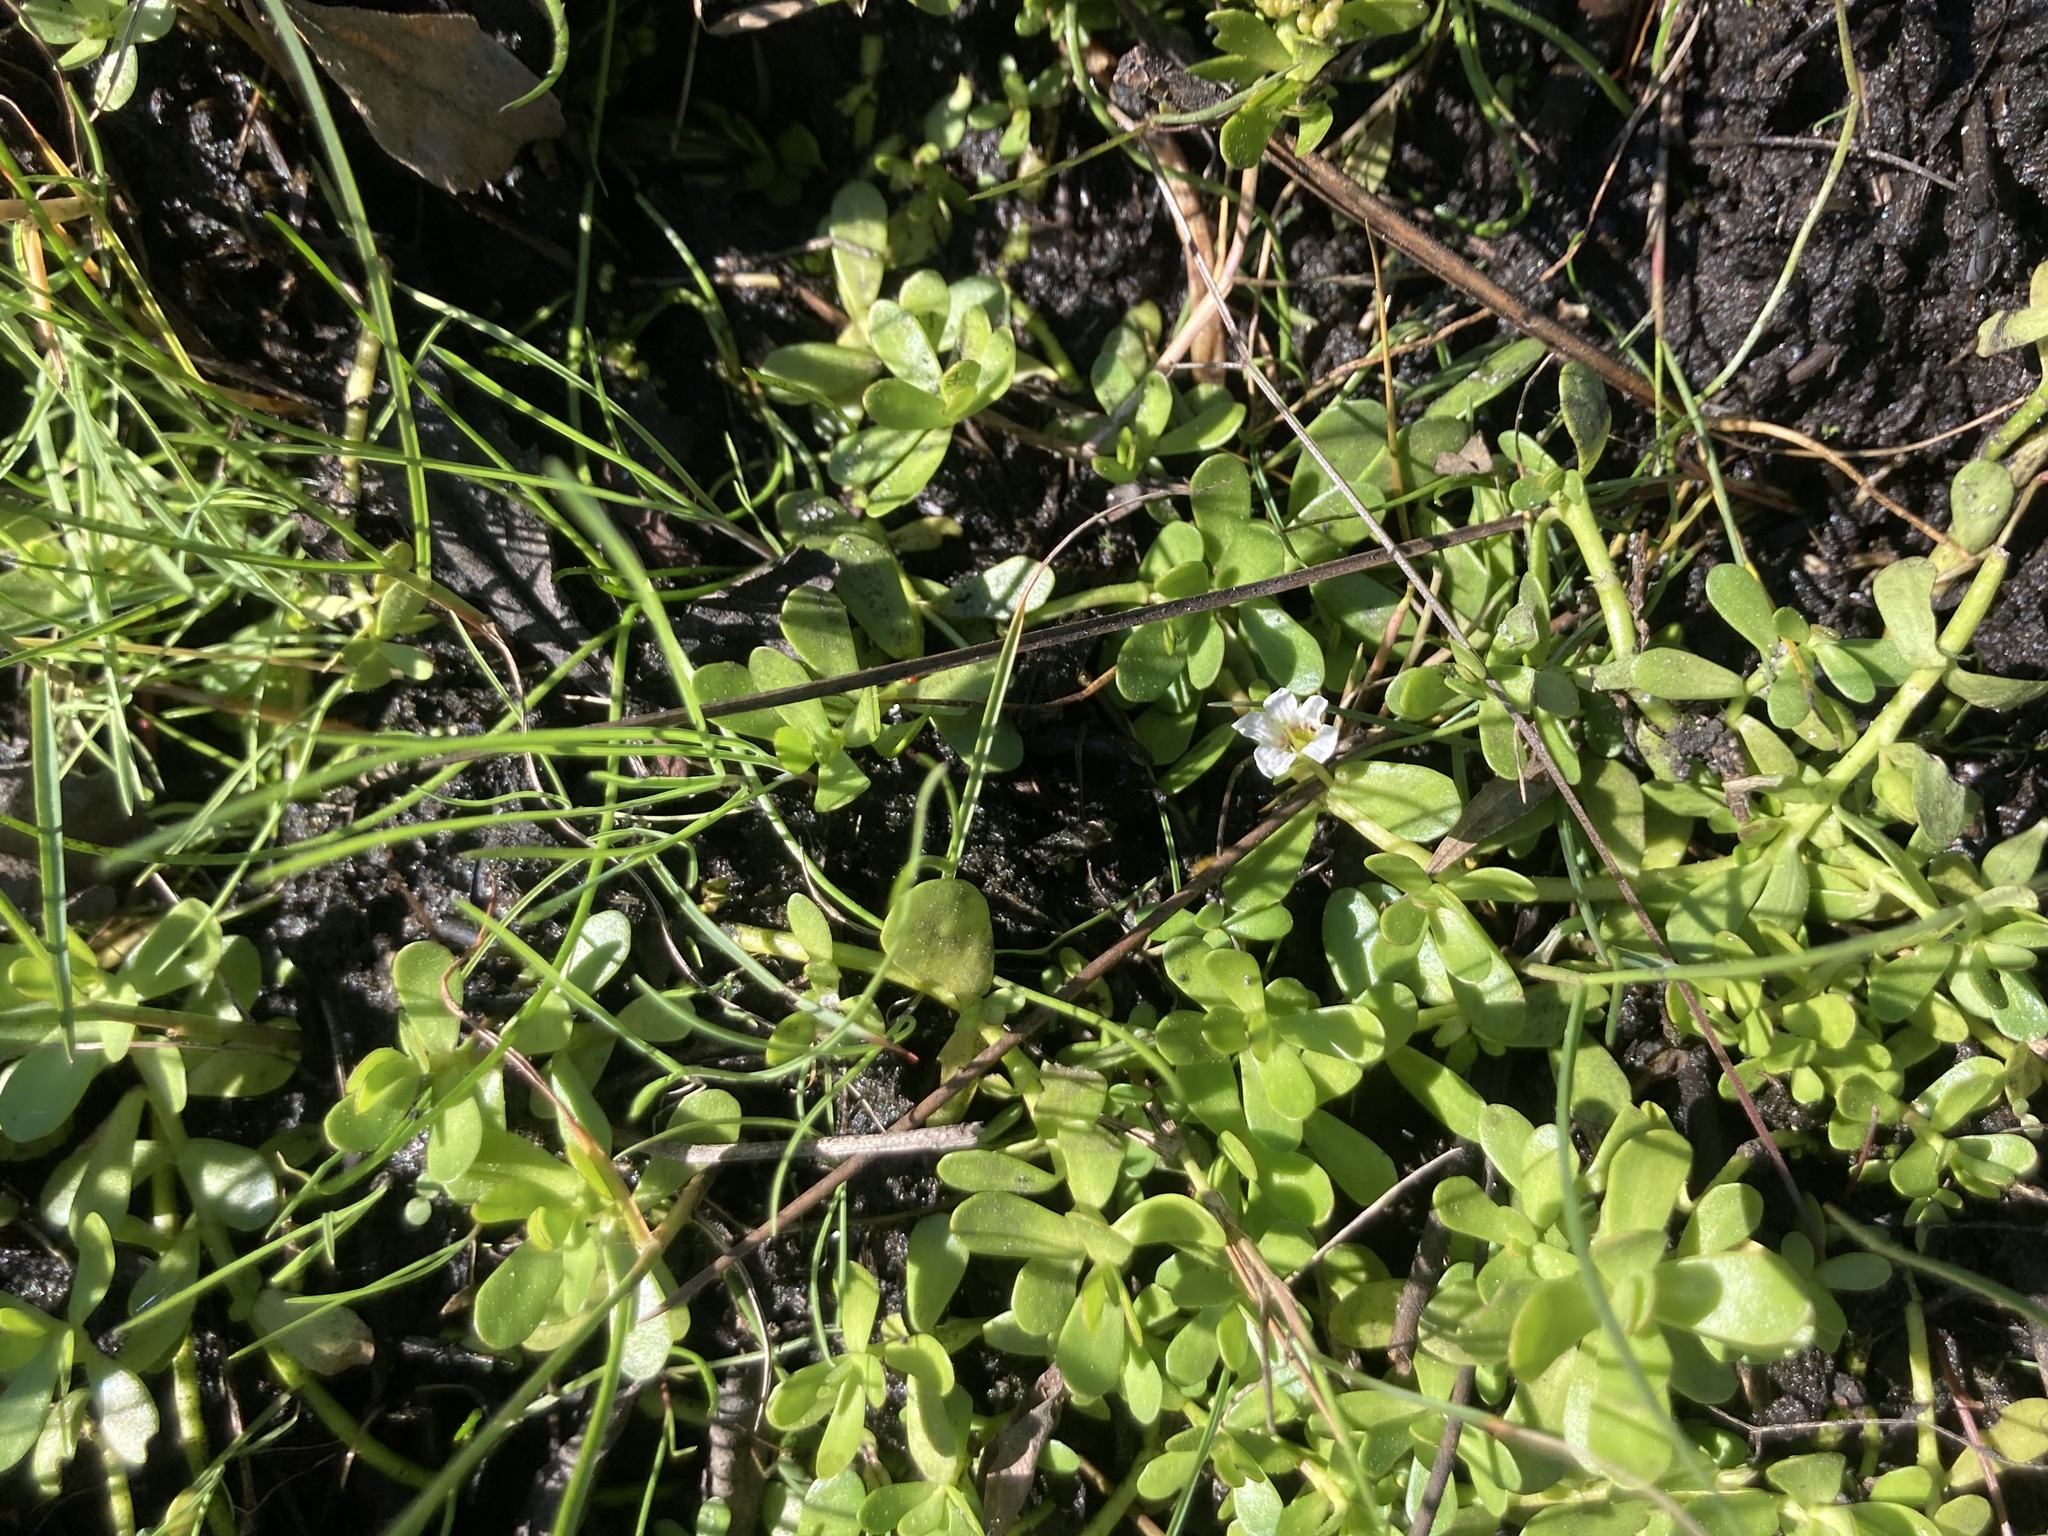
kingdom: Plantae
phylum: Tracheophyta
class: Magnoliopsida
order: Lamiales
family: Plantaginaceae
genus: Bacopa
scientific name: Bacopa monnieri
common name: Indian-pennywort
